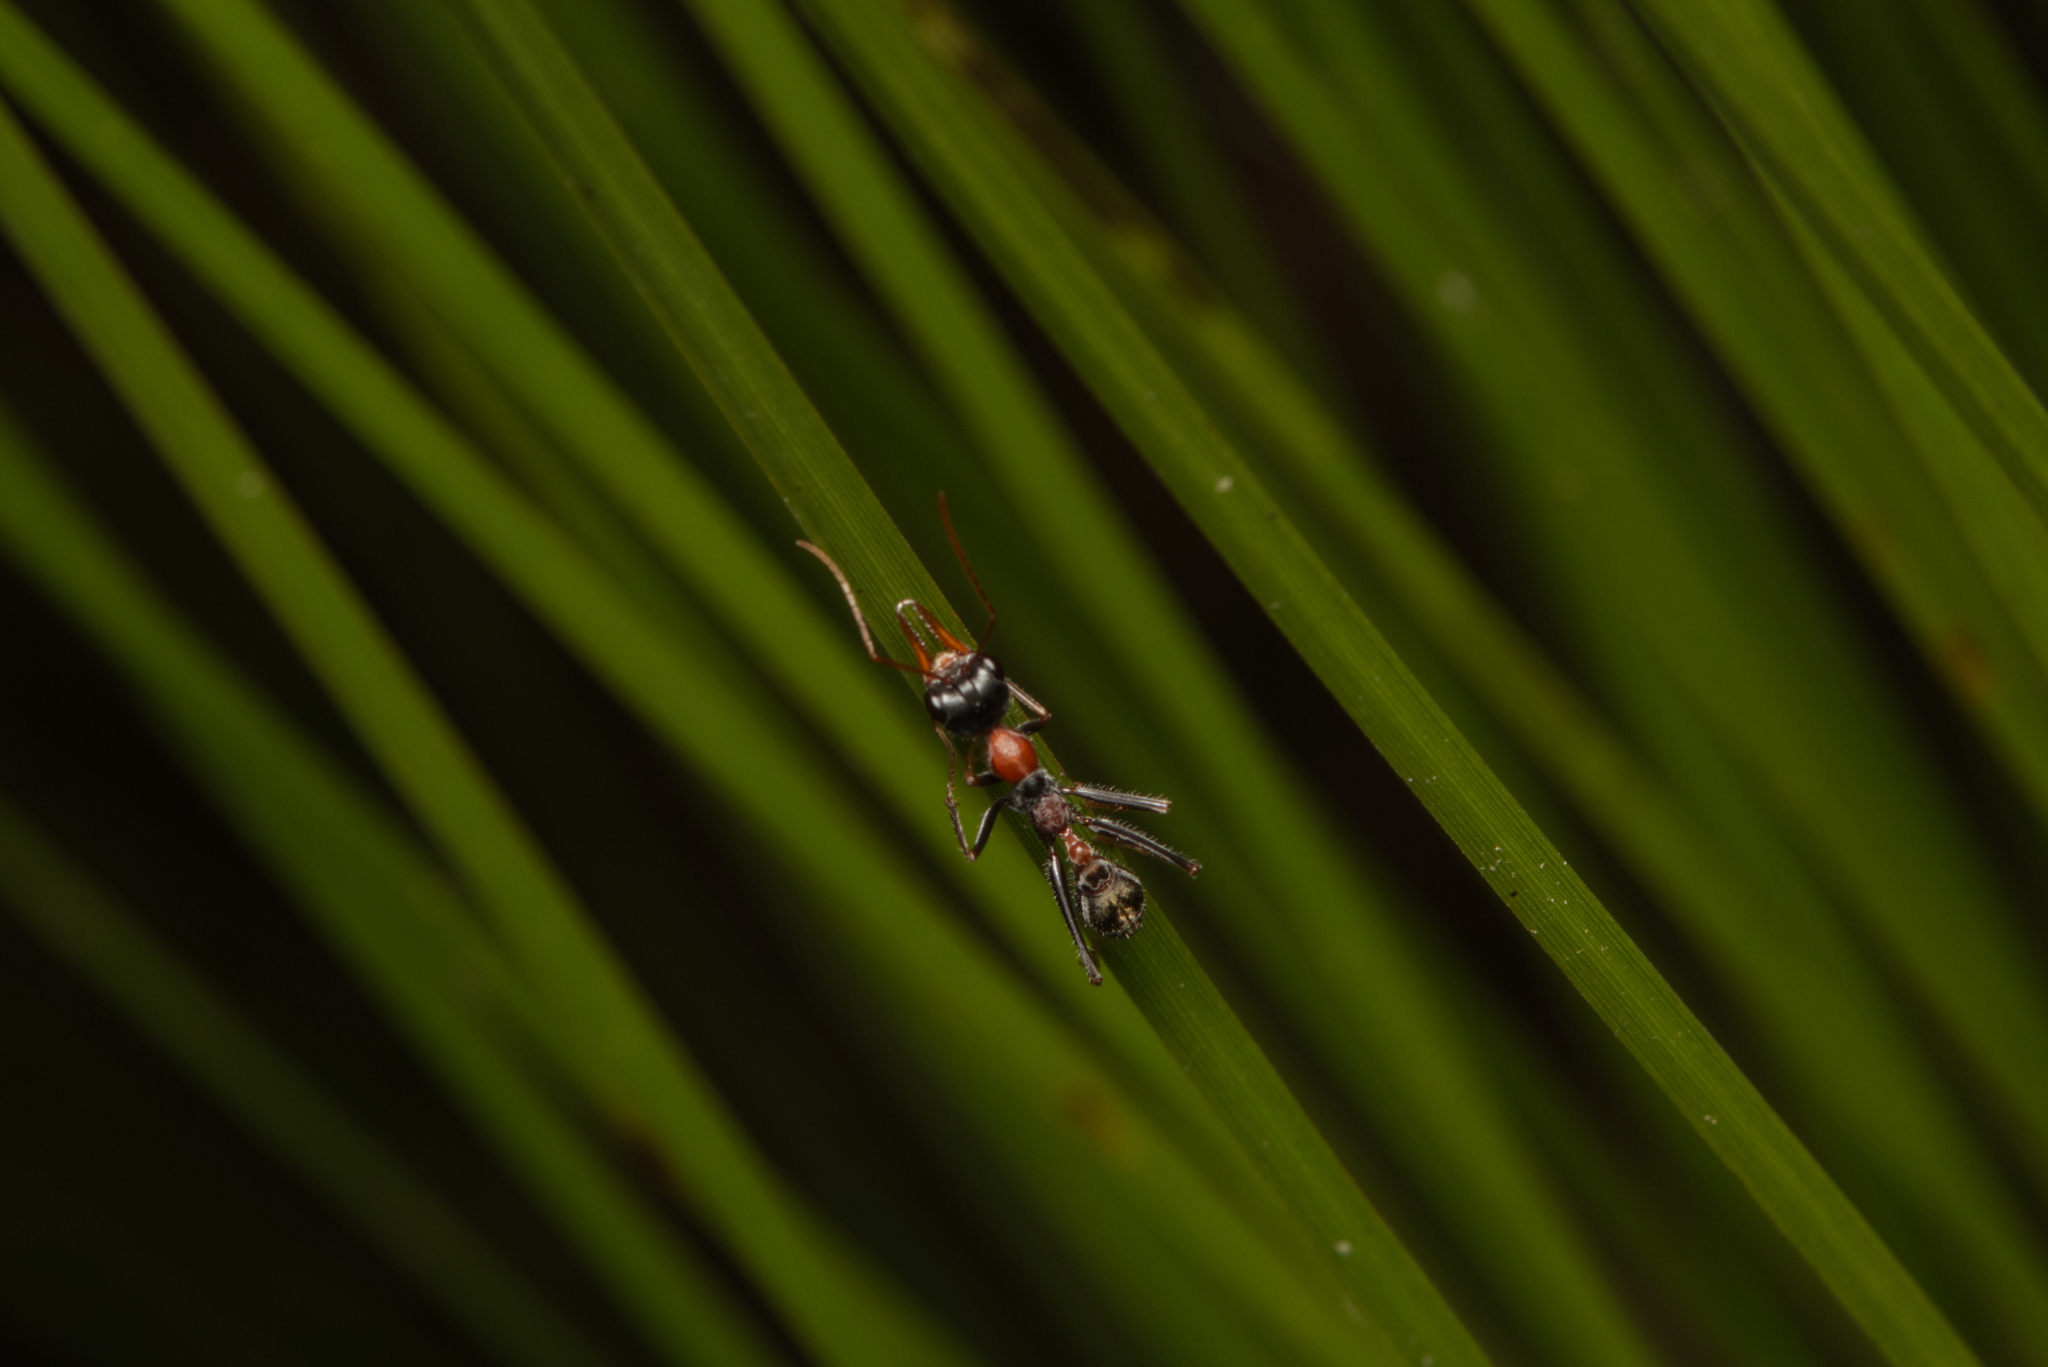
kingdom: Animalia
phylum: Arthropoda
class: Insecta
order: Hymenoptera
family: Formicidae
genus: Myrmecia
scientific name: Myrmecia nigrocincta
